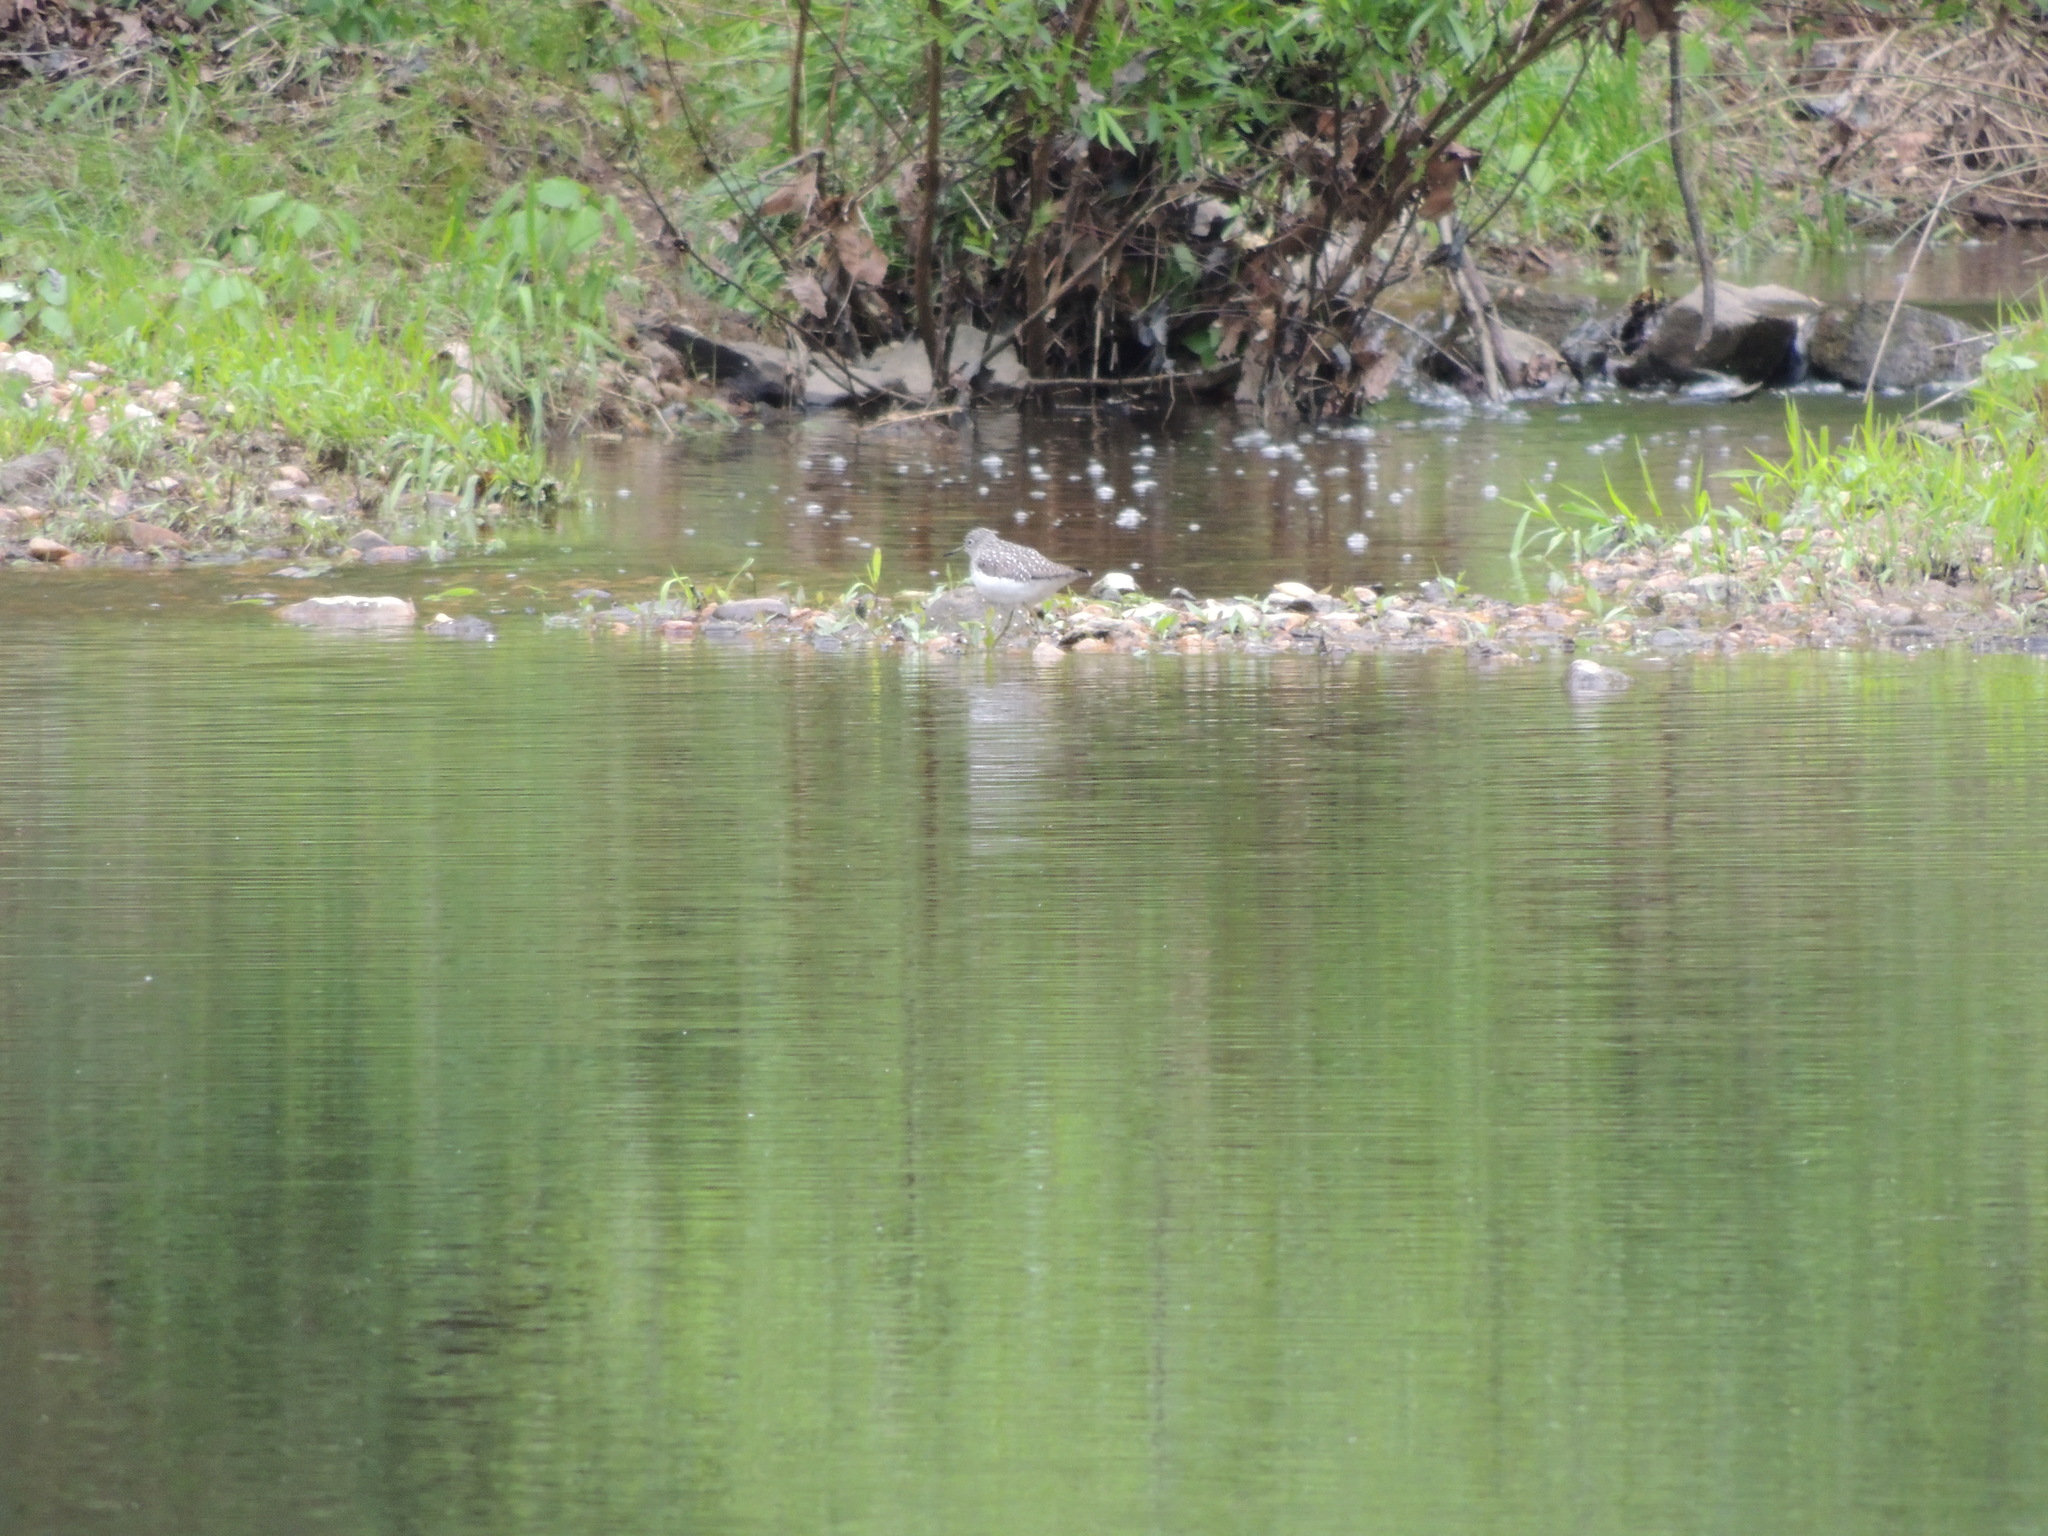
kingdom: Animalia
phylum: Chordata
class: Aves
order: Charadriiformes
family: Scolopacidae
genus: Tringa
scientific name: Tringa solitaria
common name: Solitary sandpiper
